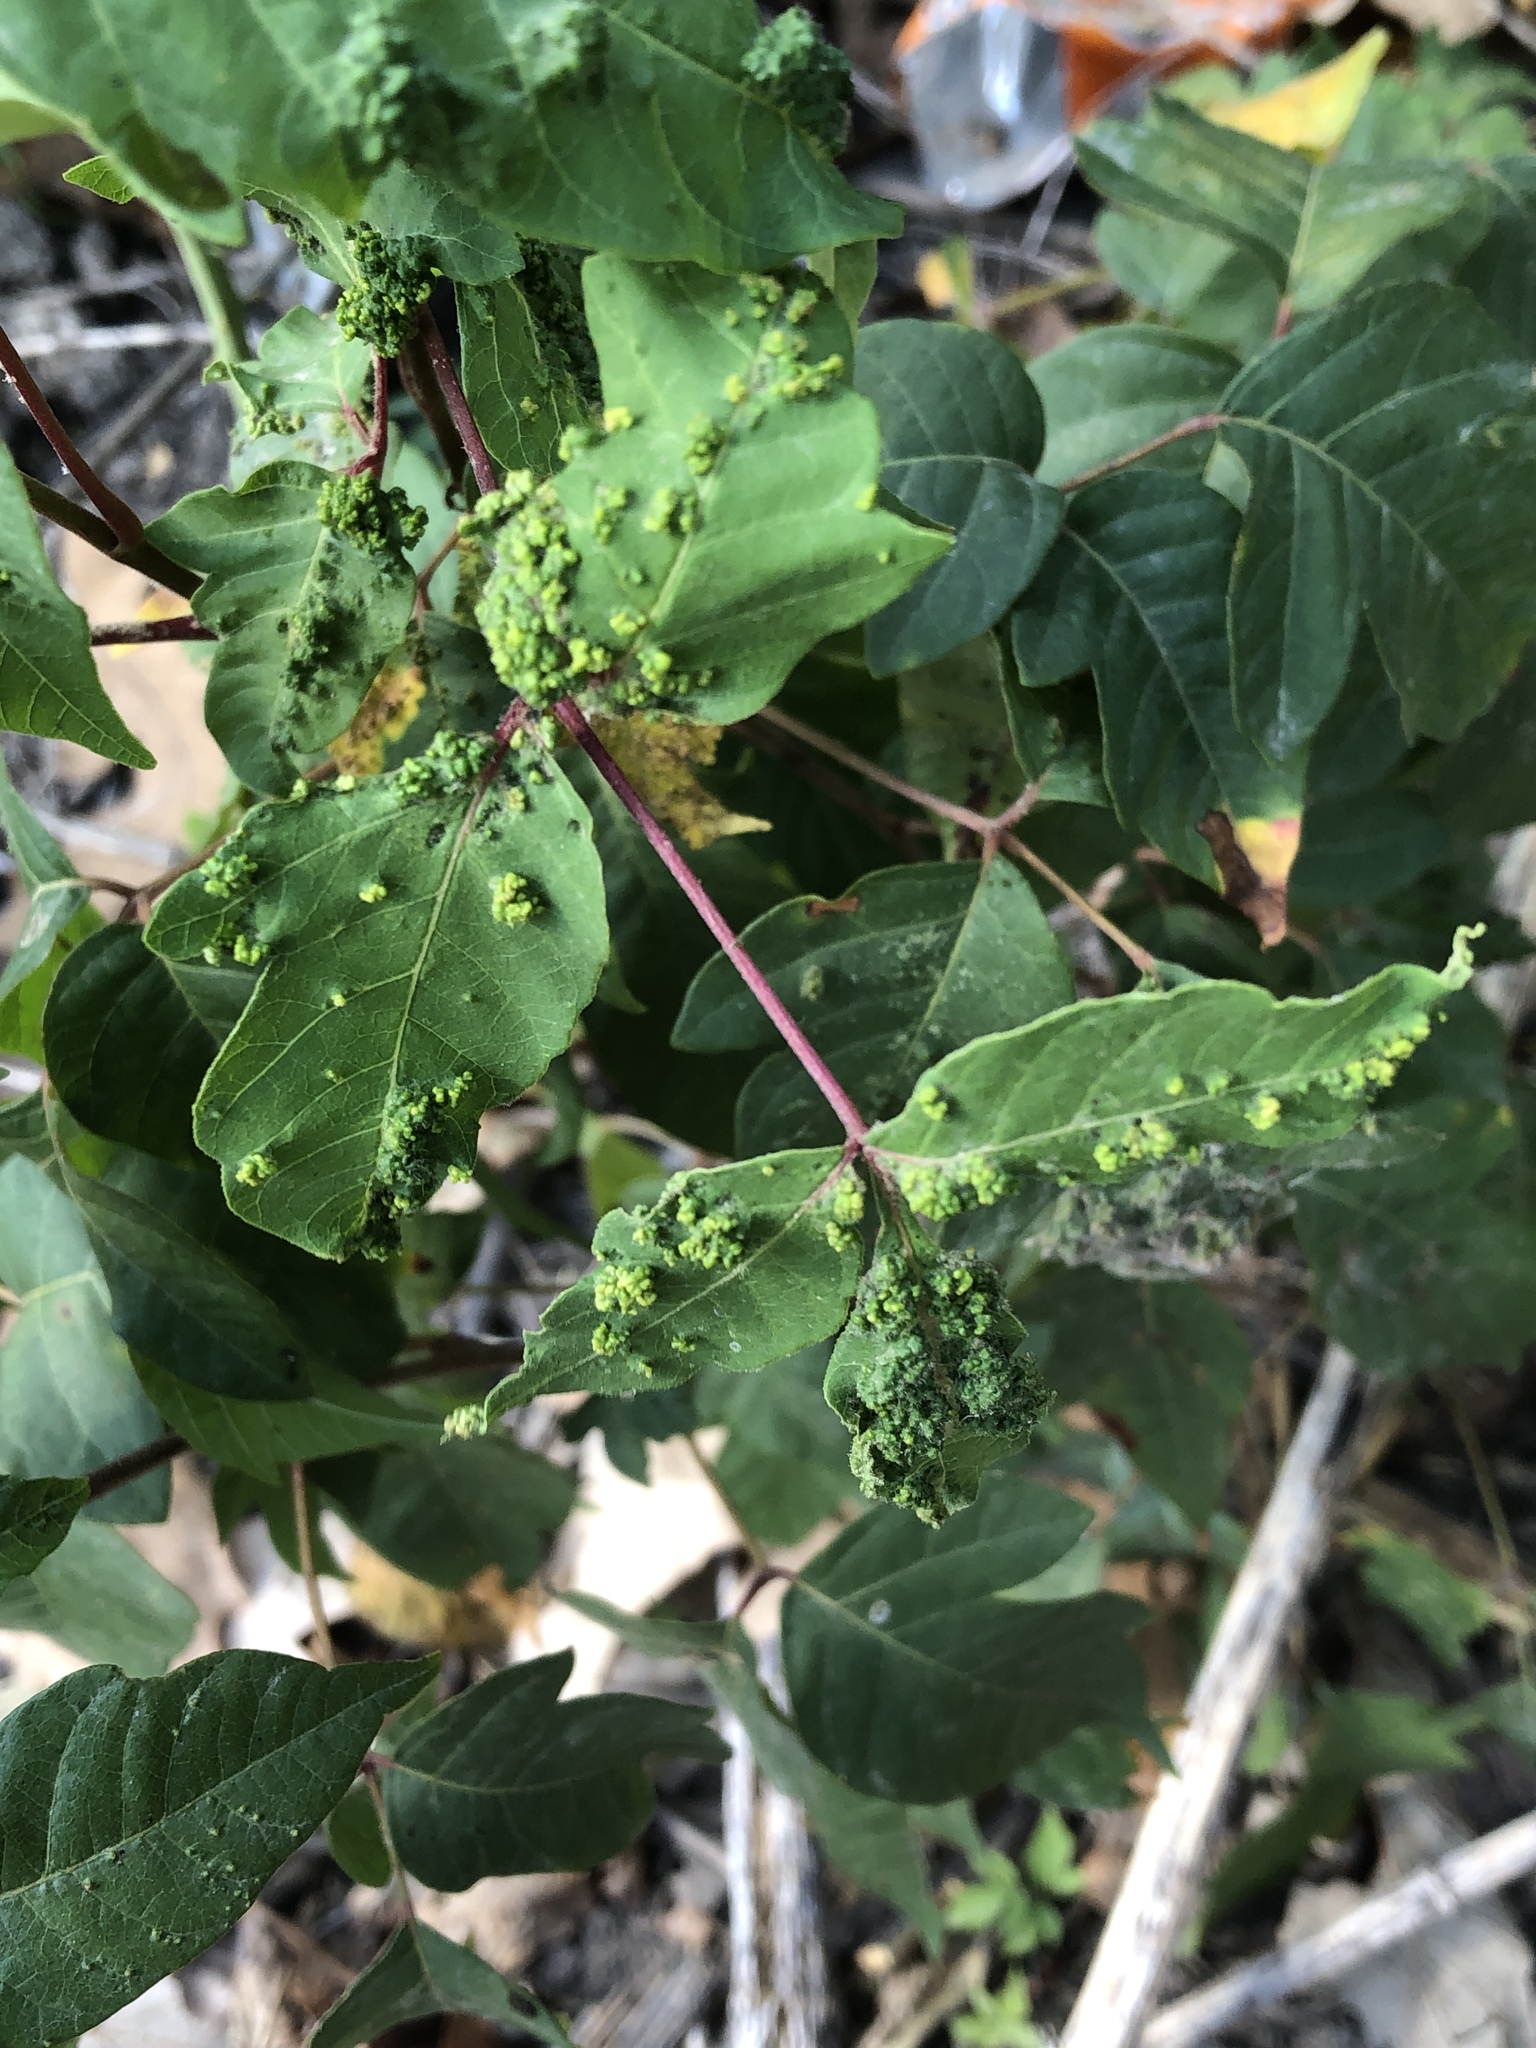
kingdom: Animalia
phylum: Arthropoda
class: Arachnida
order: Trombidiformes
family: Eriophyidae
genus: Aculops
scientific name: Aculops
